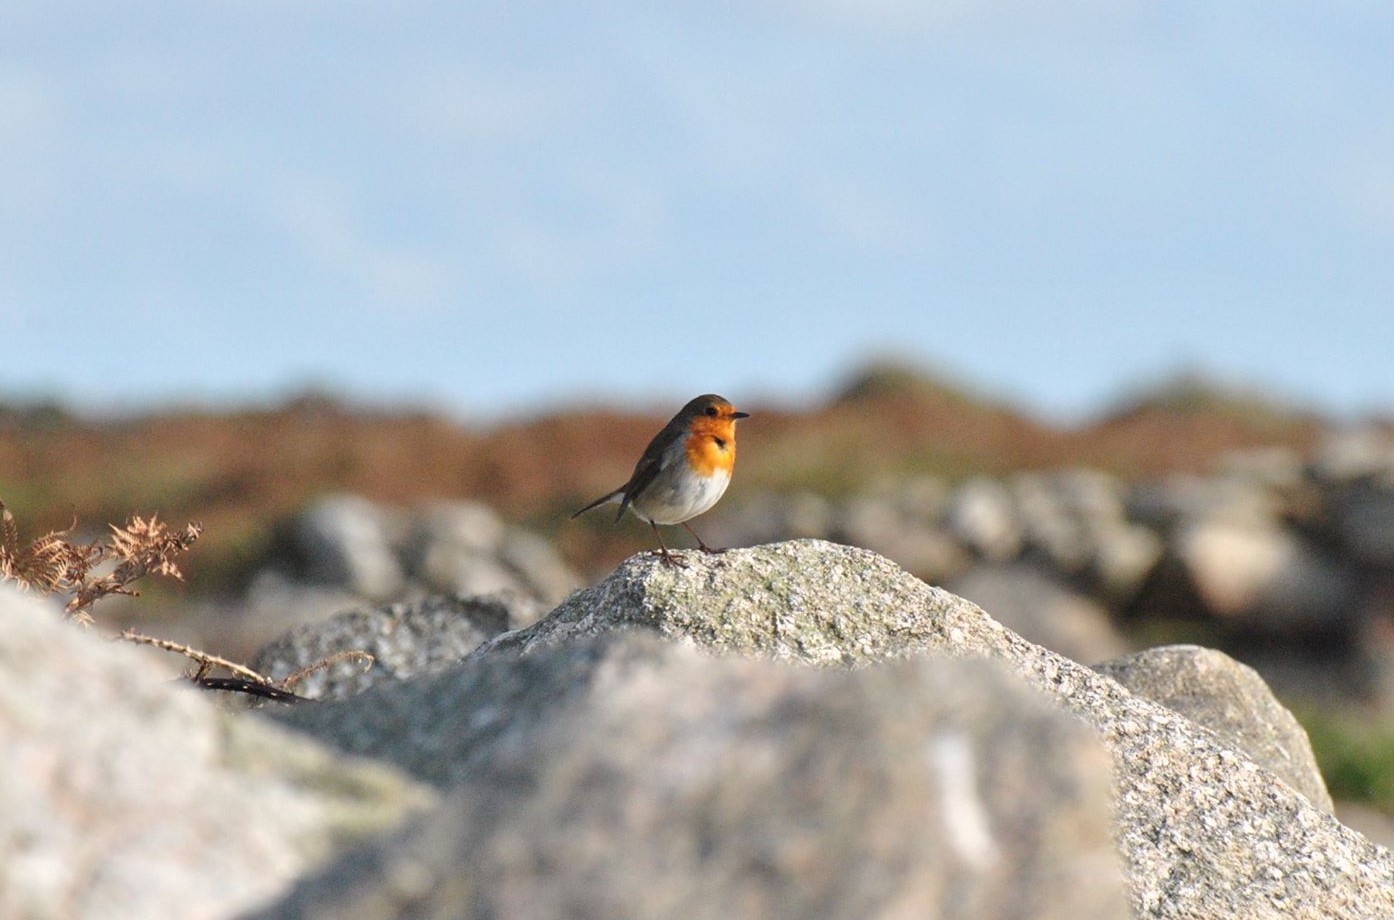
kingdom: Animalia
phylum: Chordata
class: Aves
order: Passeriformes
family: Muscicapidae
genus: Erithacus
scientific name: Erithacus rubecula
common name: European robin
